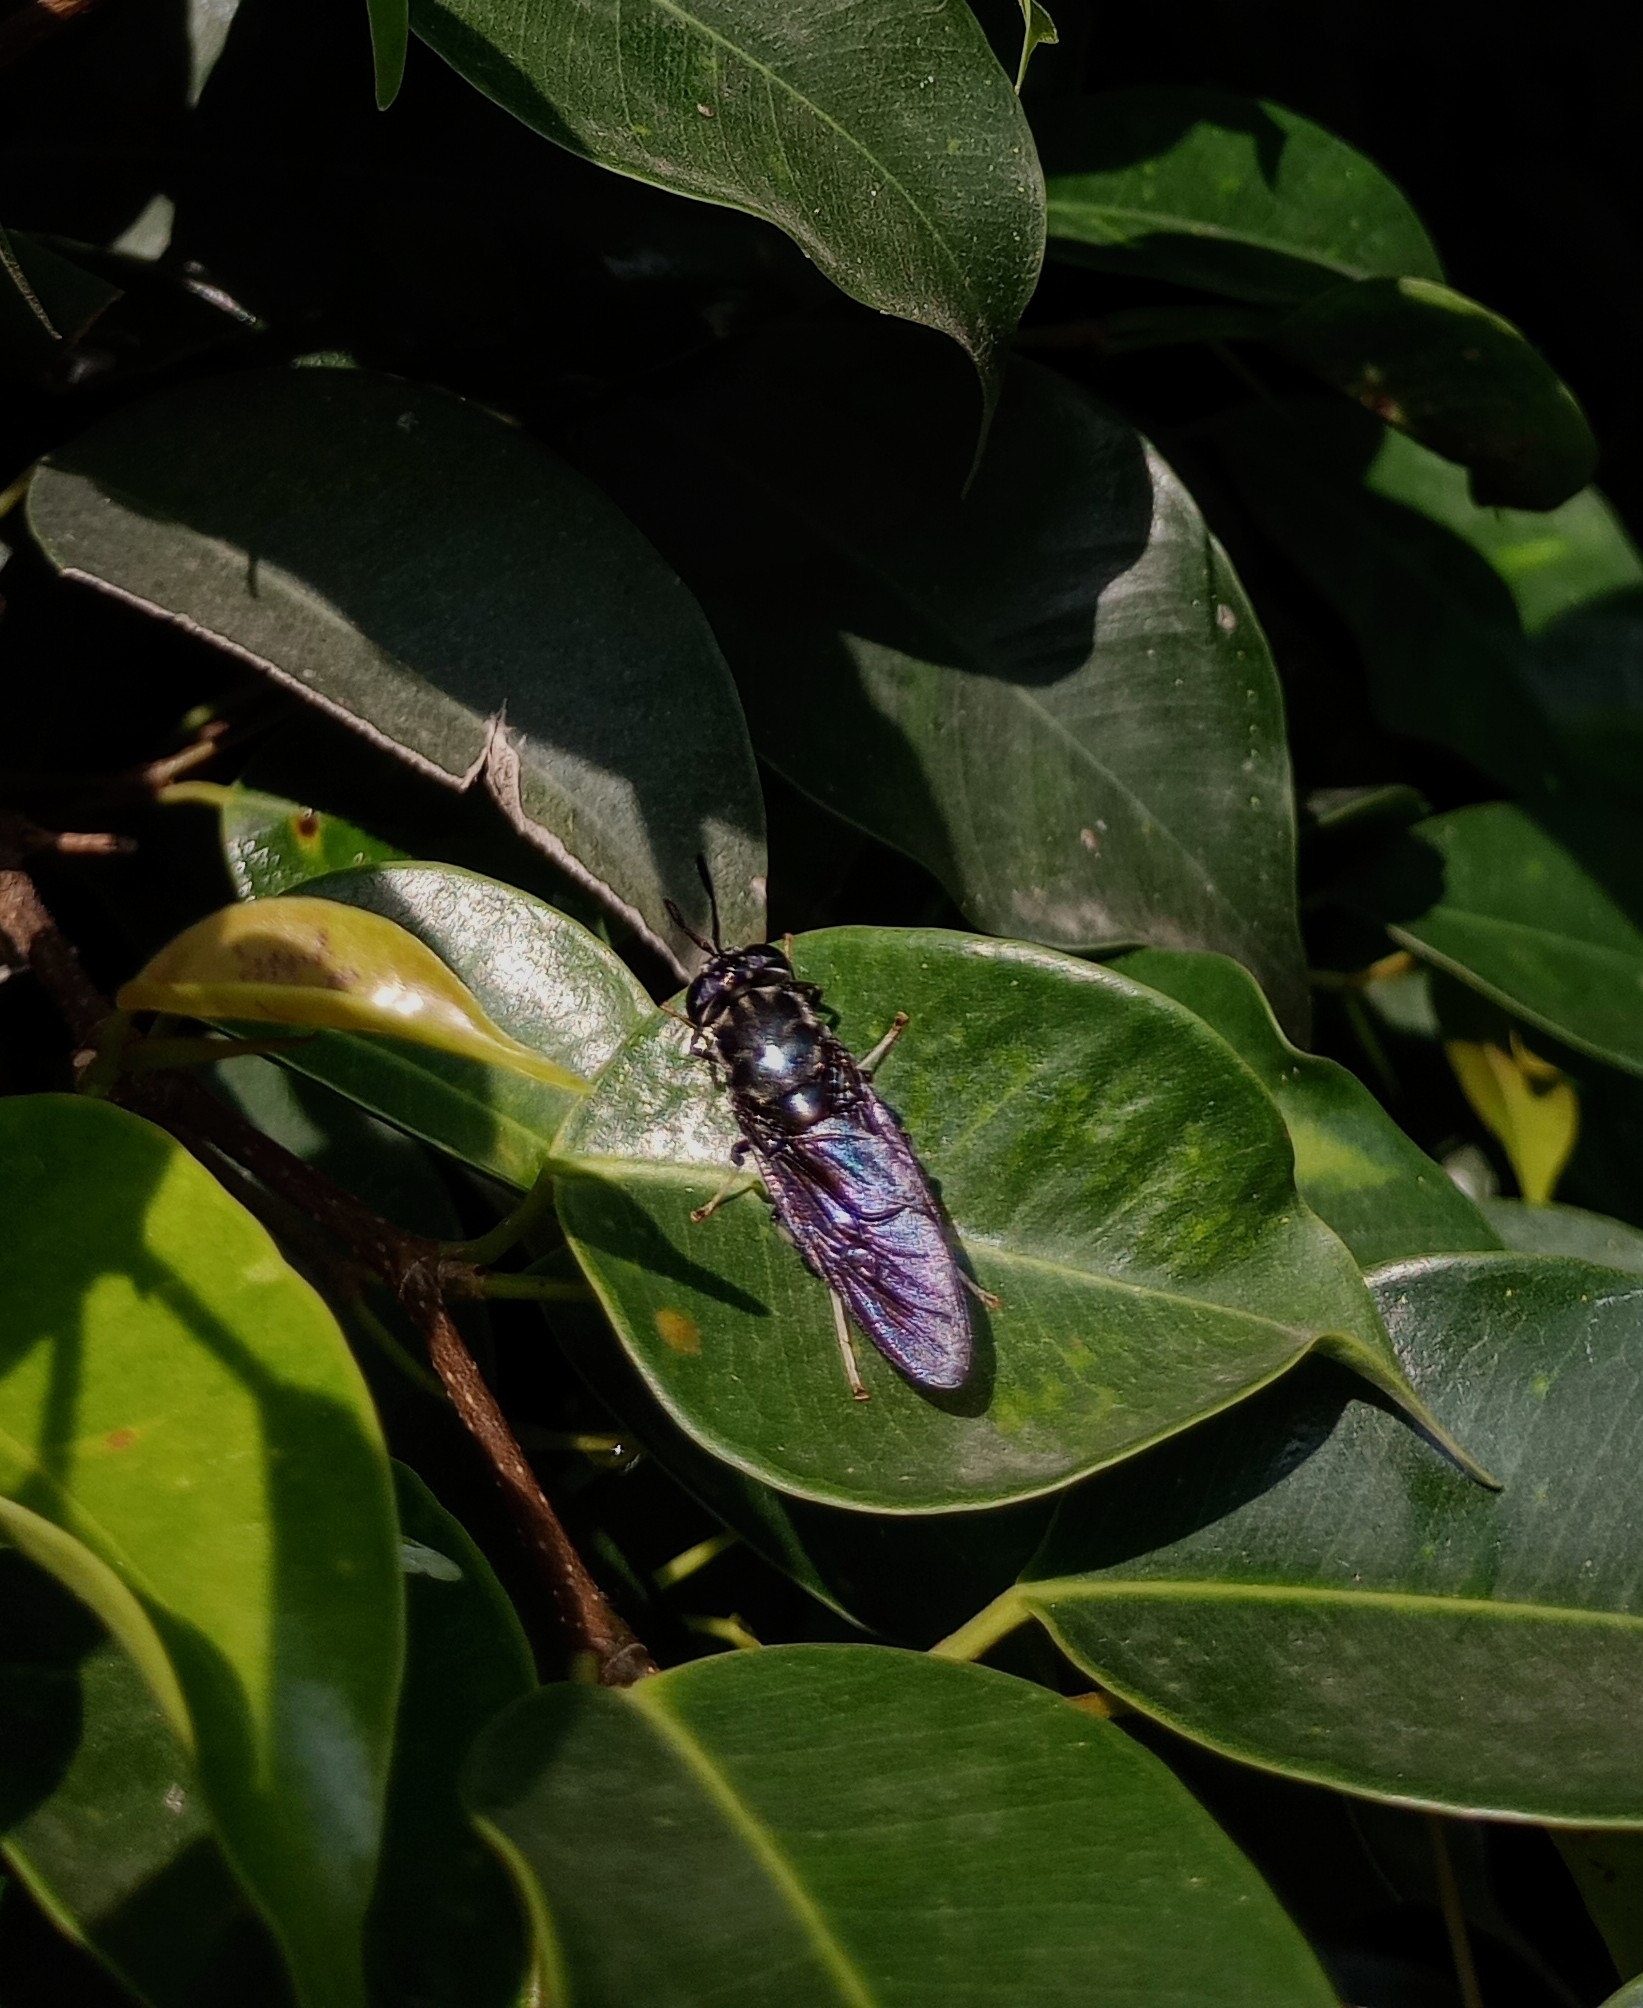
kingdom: Animalia
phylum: Arthropoda
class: Insecta
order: Diptera
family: Stratiomyidae
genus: Hermetia
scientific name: Hermetia illucens
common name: Black soldier fly
